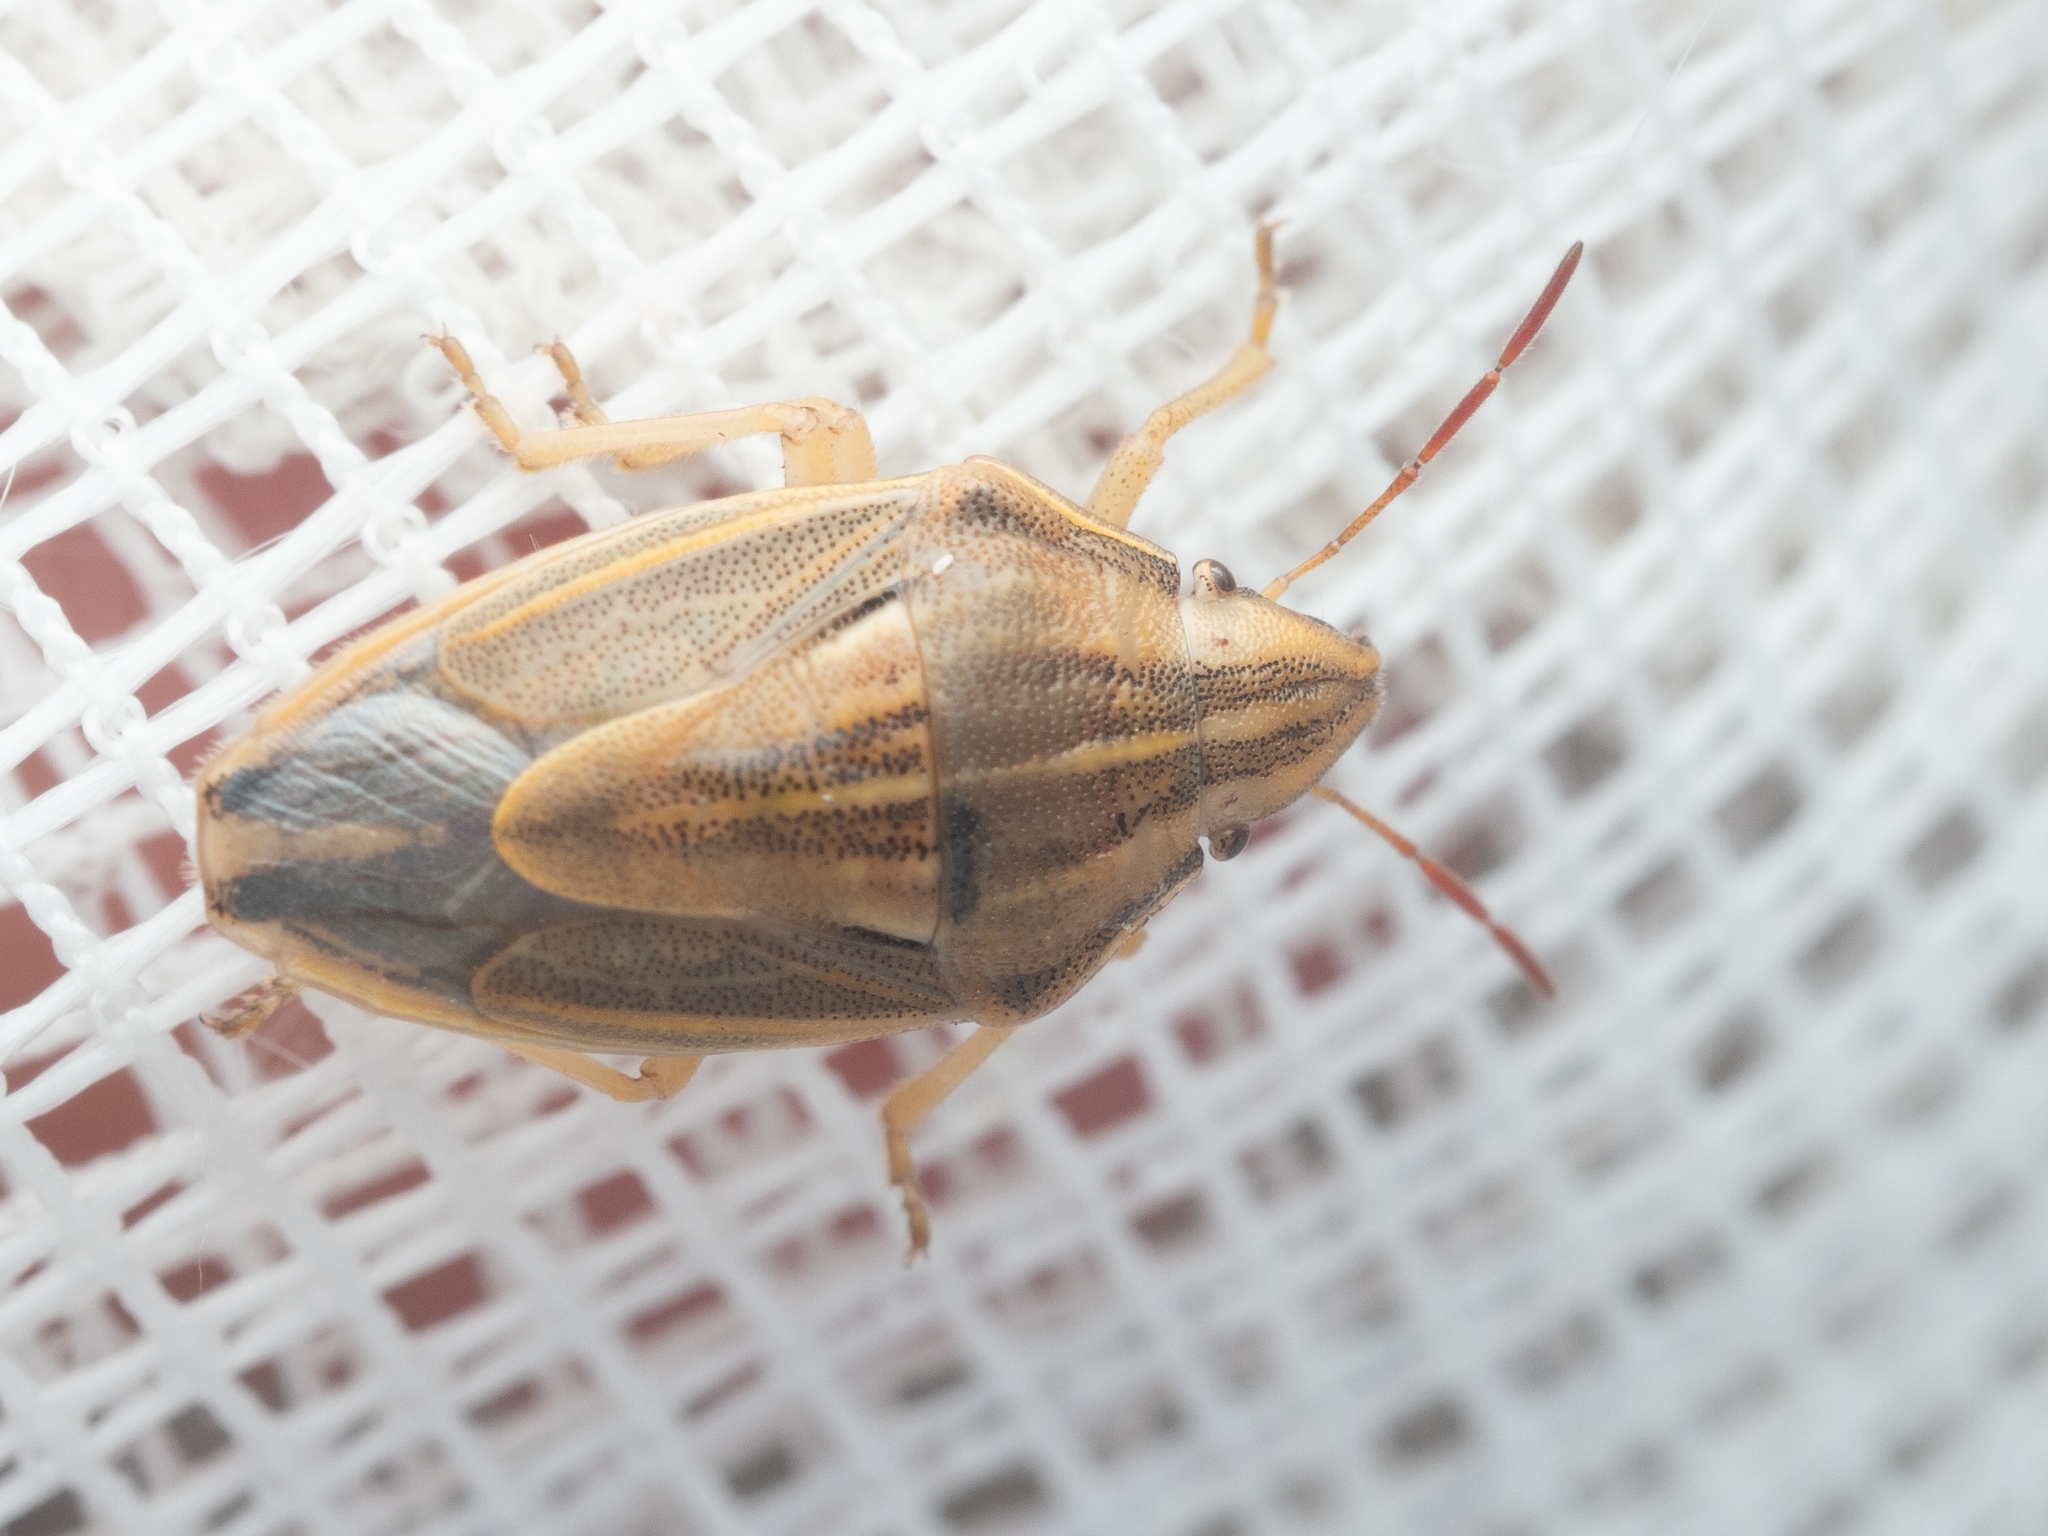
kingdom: Animalia
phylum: Arthropoda
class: Insecta
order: Hemiptera
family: Pentatomidae
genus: Aelia
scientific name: Aelia acuminata
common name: Bishop's mitre
